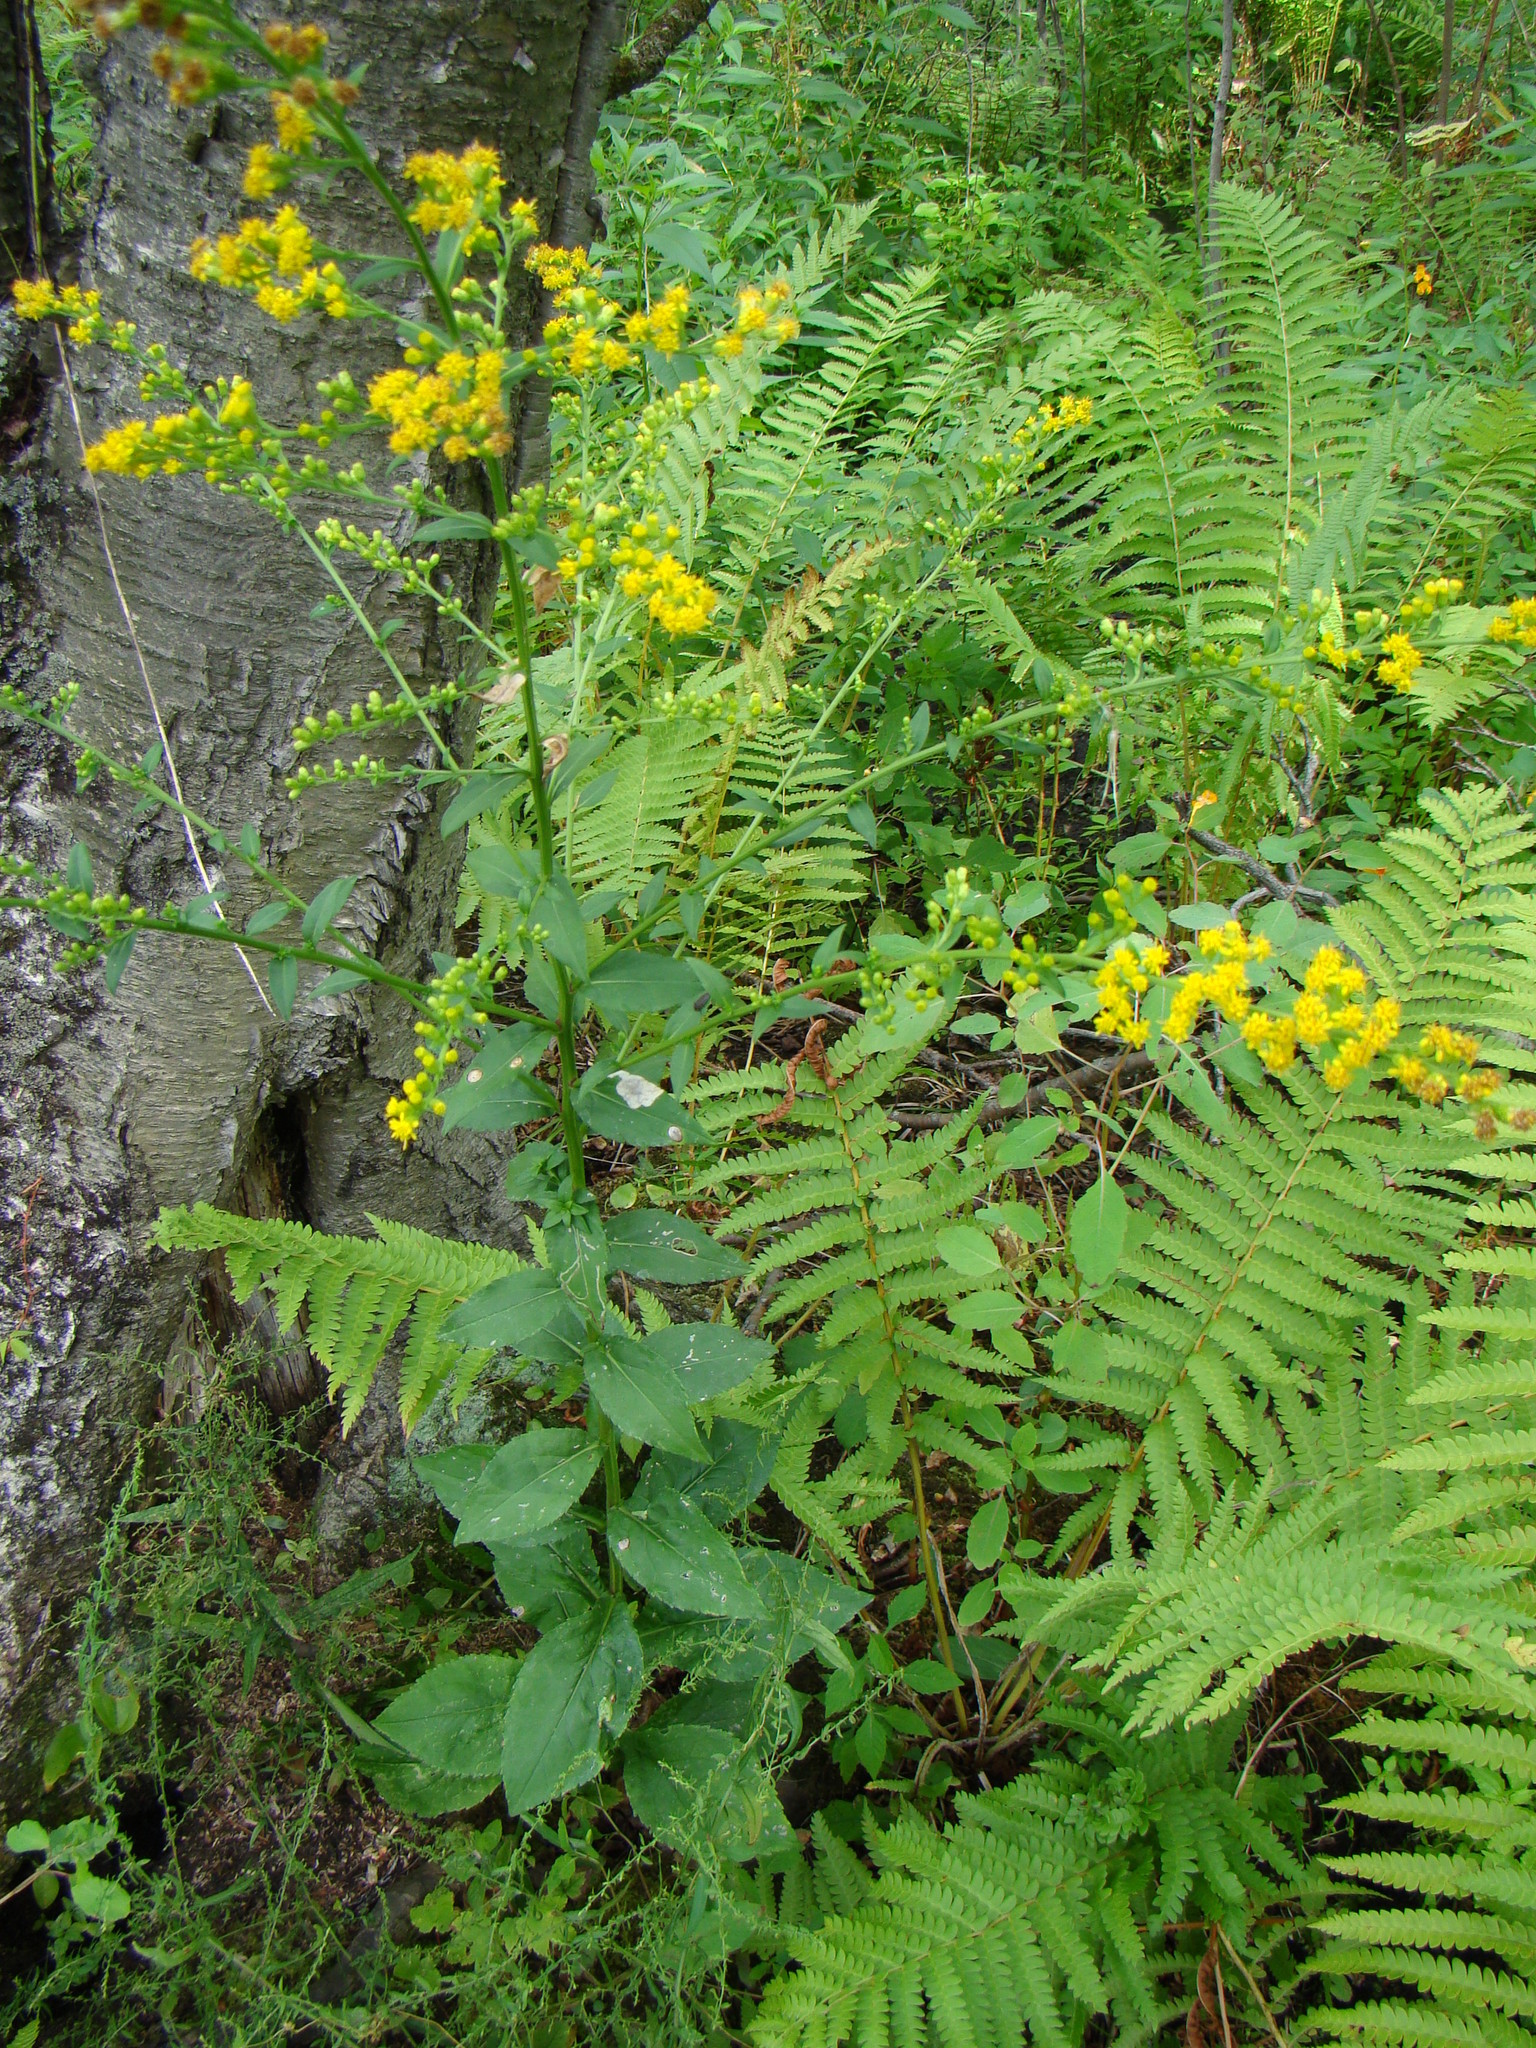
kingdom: Plantae
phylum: Tracheophyta
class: Magnoliopsida
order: Asterales
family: Asteraceae
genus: Solidago
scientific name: Solidago patula
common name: Rough-leaf goldenrod
